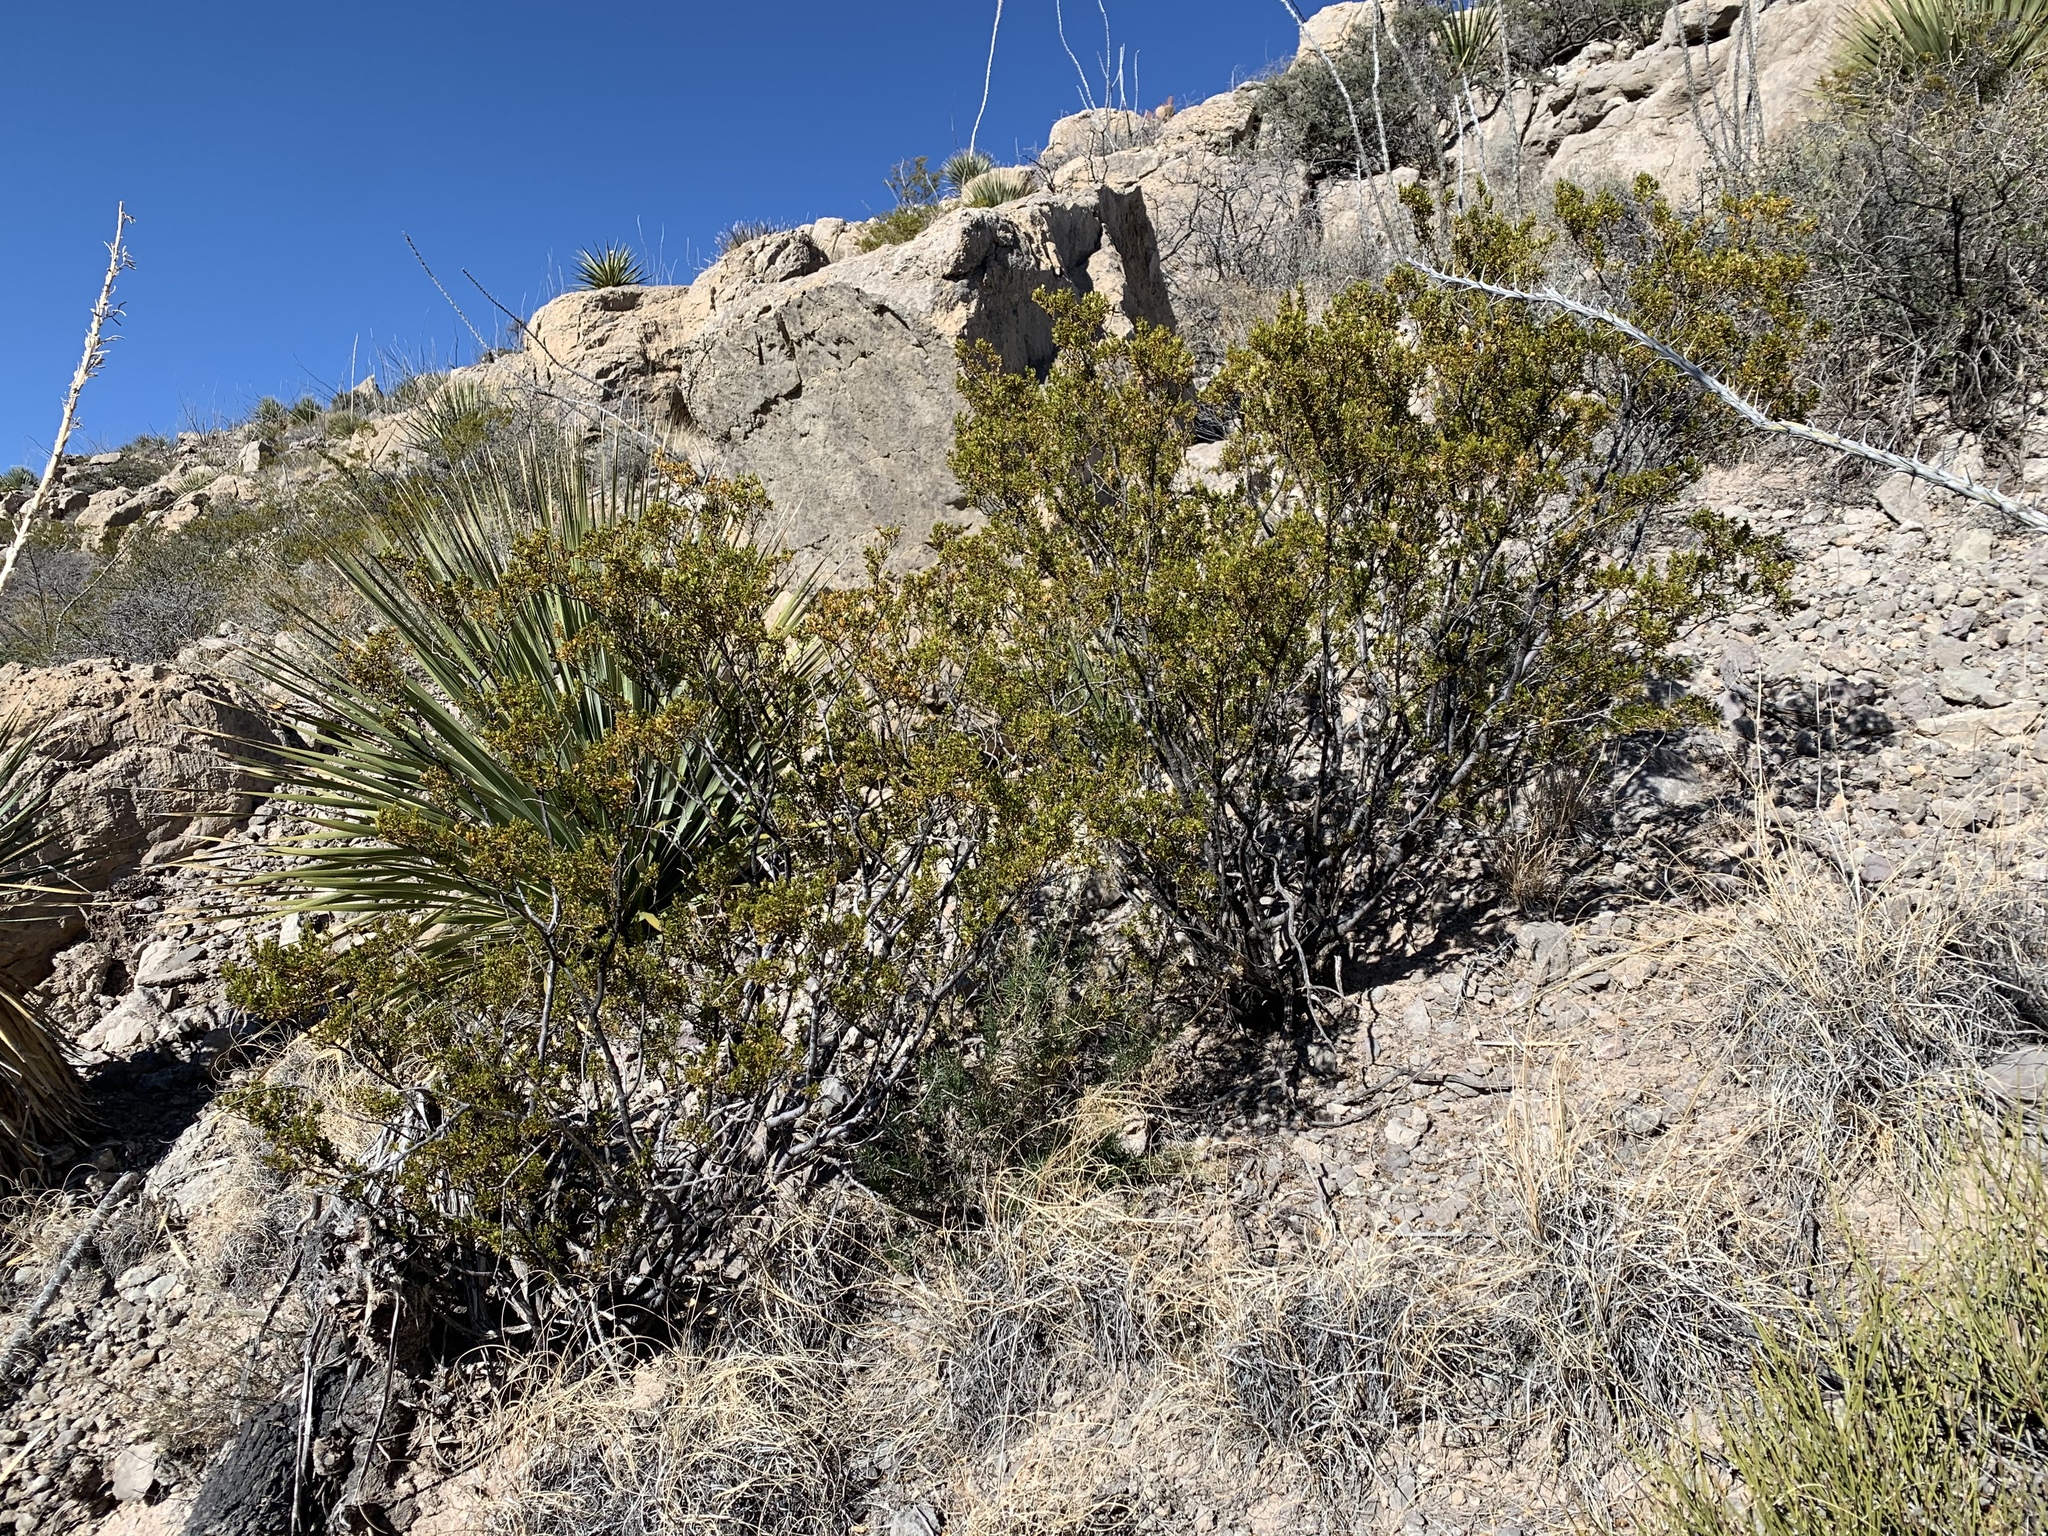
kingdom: Plantae
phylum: Tracheophyta
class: Magnoliopsida
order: Zygophyllales
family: Zygophyllaceae
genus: Larrea
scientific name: Larrea tridentata
